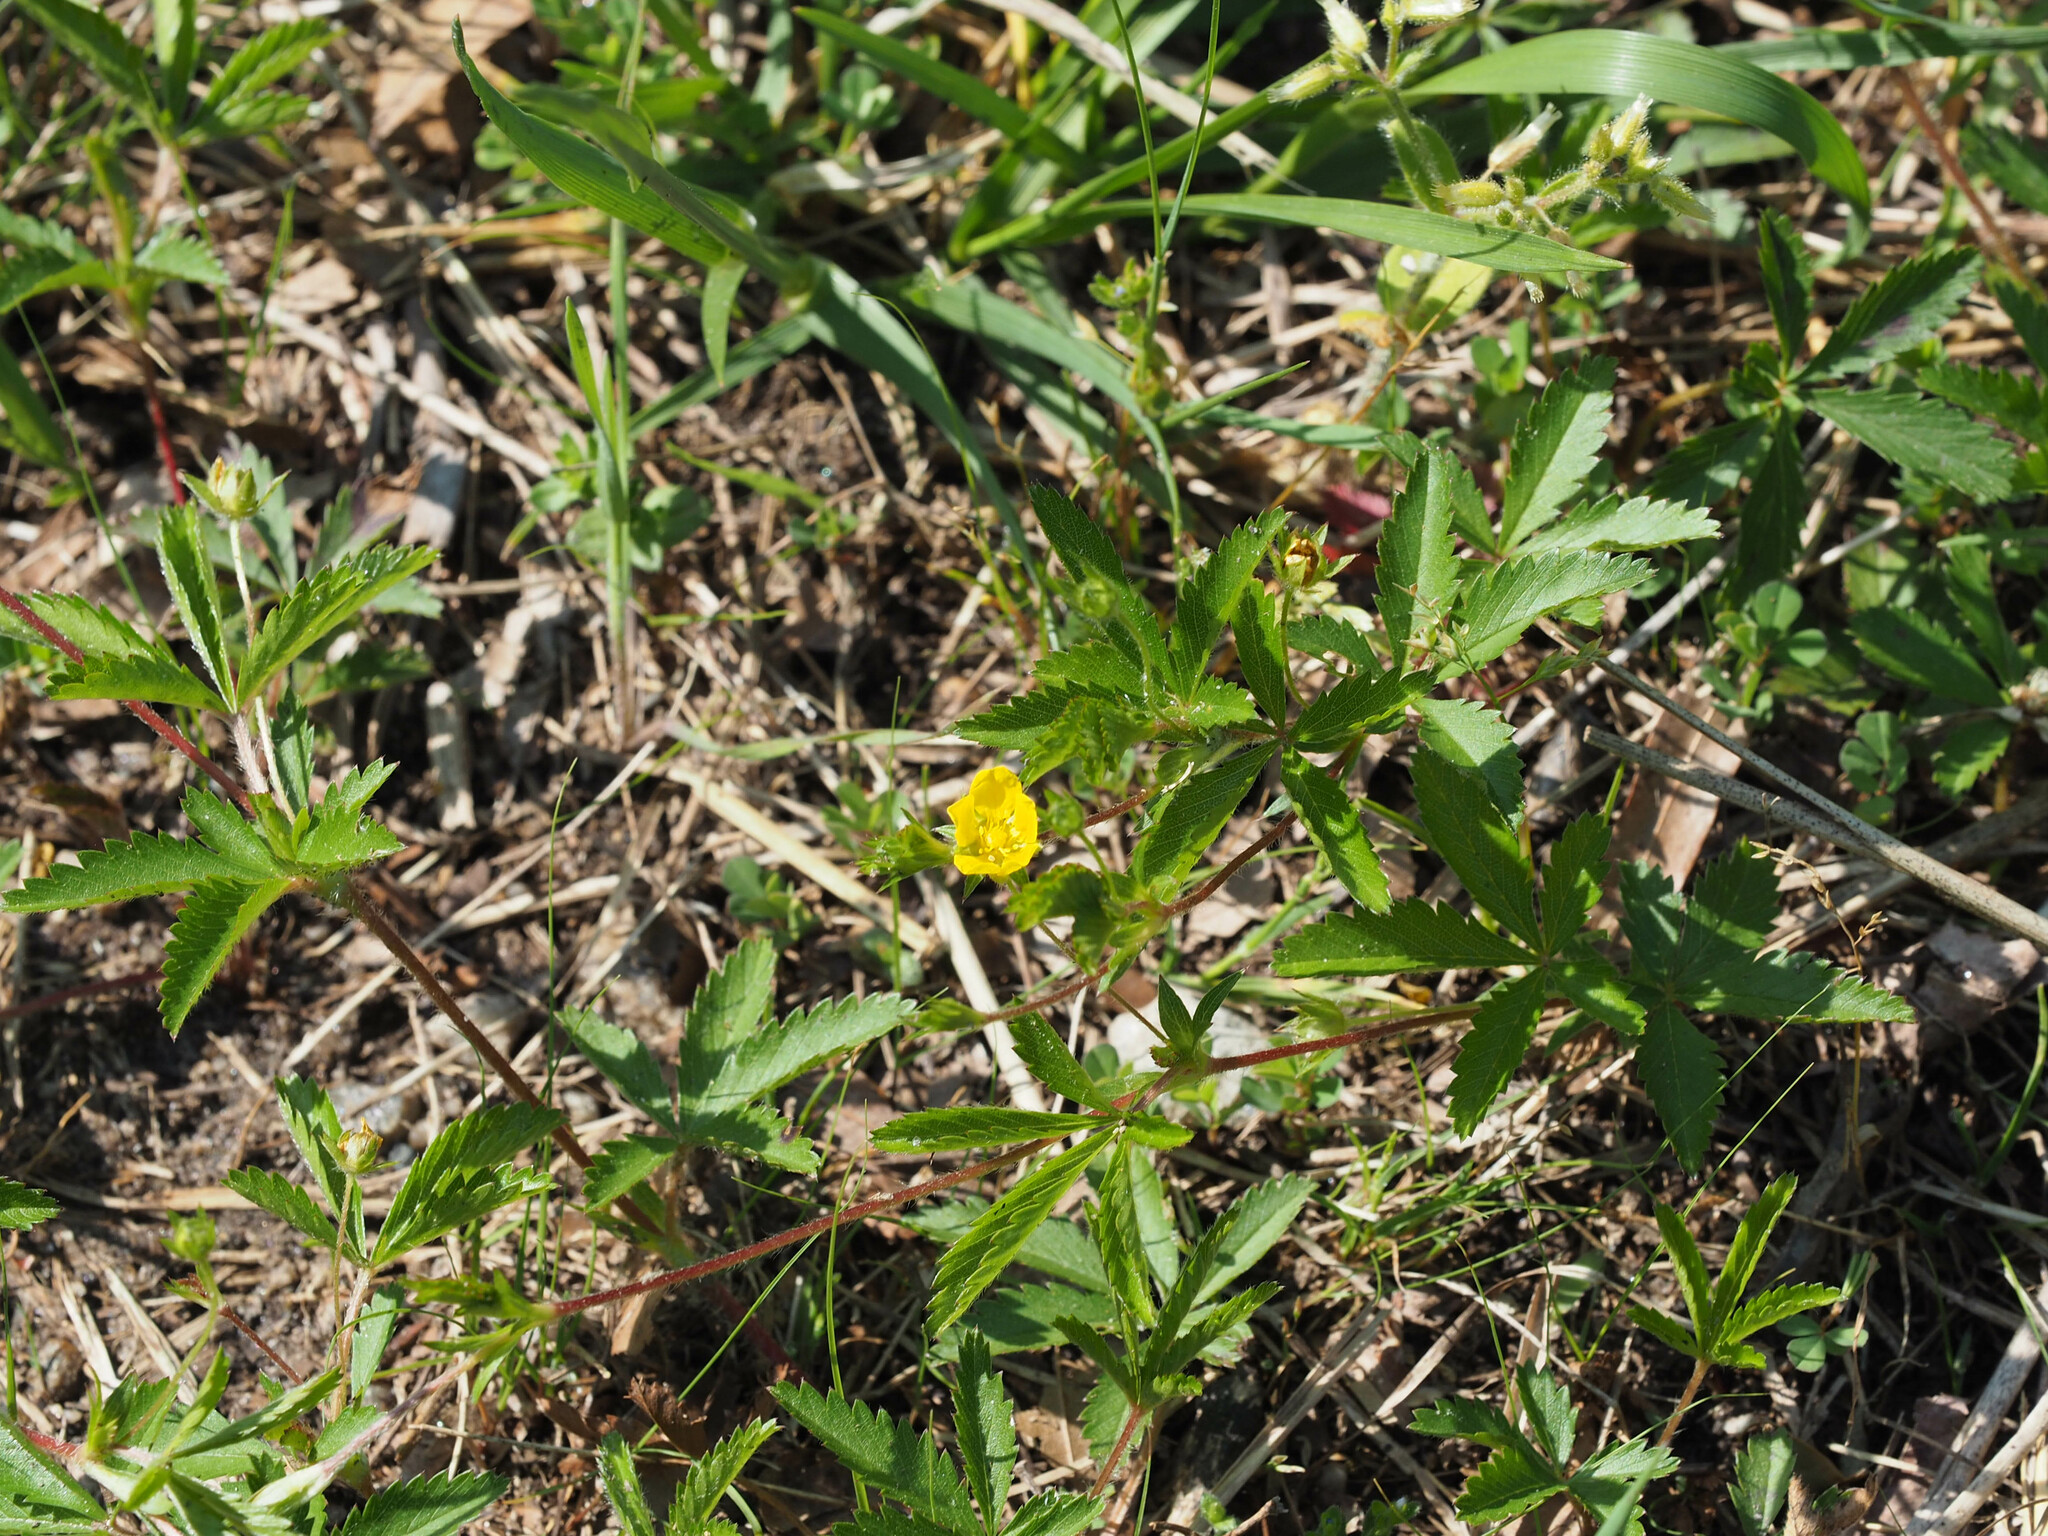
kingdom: Plantae
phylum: Tracheophyta
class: Magnoliopsida
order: Rosales
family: Rosaceae
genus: Potentilla
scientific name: Potentilla simplex
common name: Old field cinquefoil
